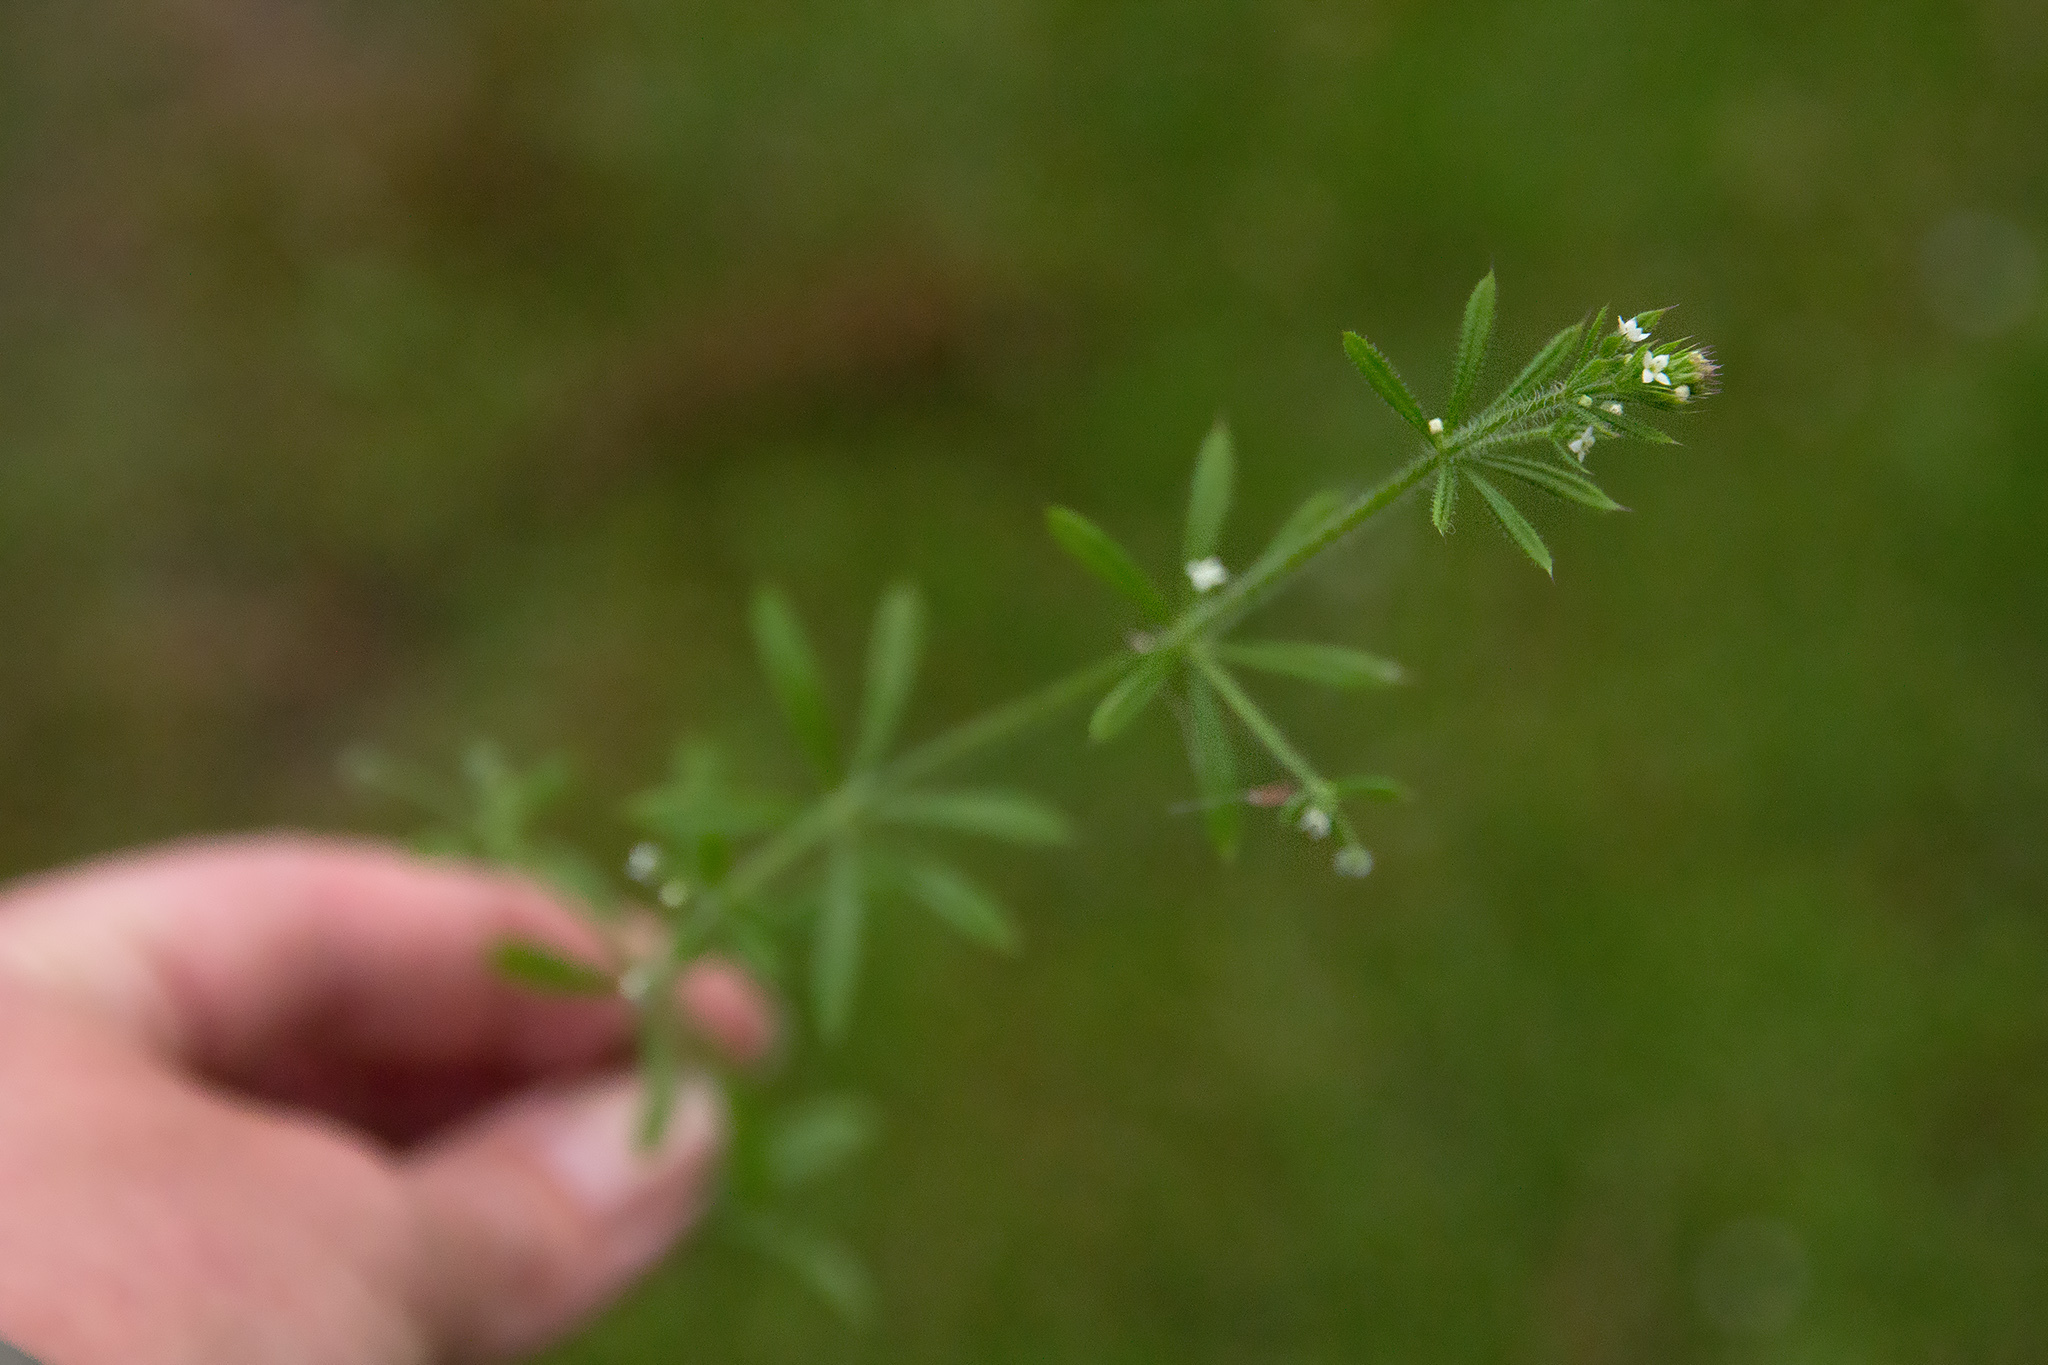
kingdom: Plantae
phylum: Tracheophyta
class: Magnoliopsida
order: Gentianales
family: Rubiaceae
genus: Galium
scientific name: Galium aparine
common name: Cleavers
